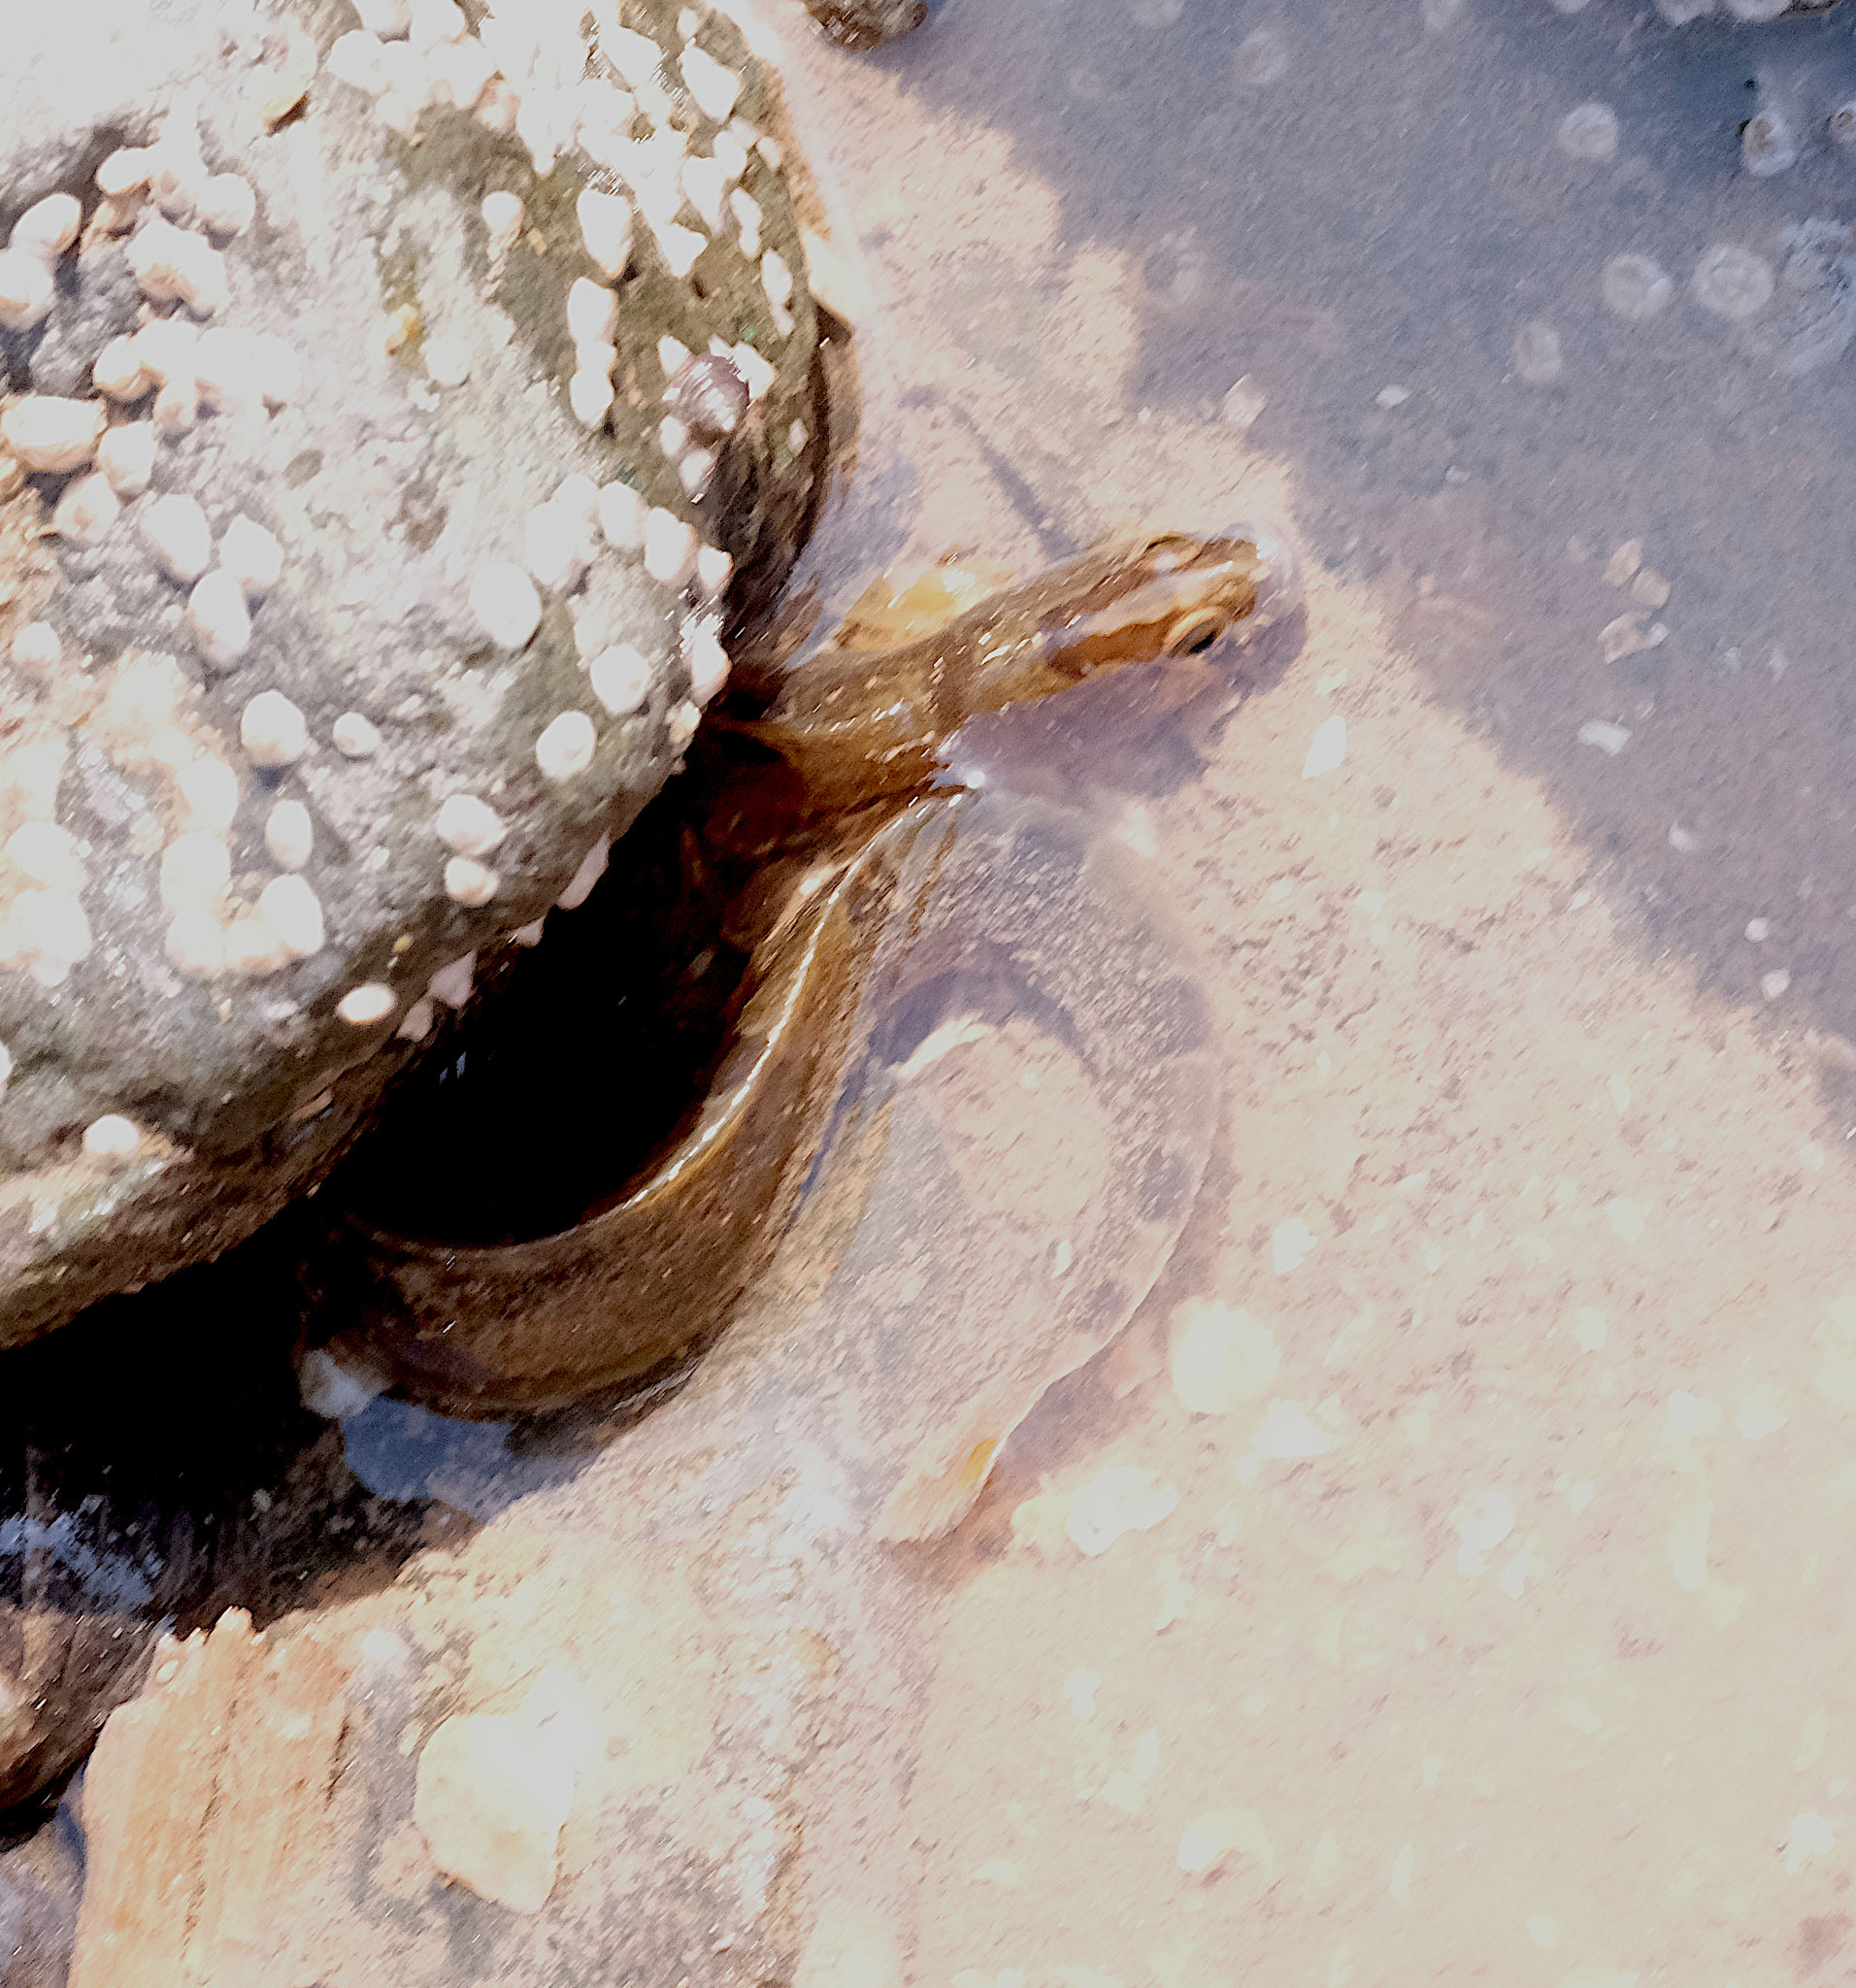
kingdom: Animalia
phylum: Chordata
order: Perciformes
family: Pholidae
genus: Pholis
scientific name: Pholis gunnellus
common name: Butterfish
